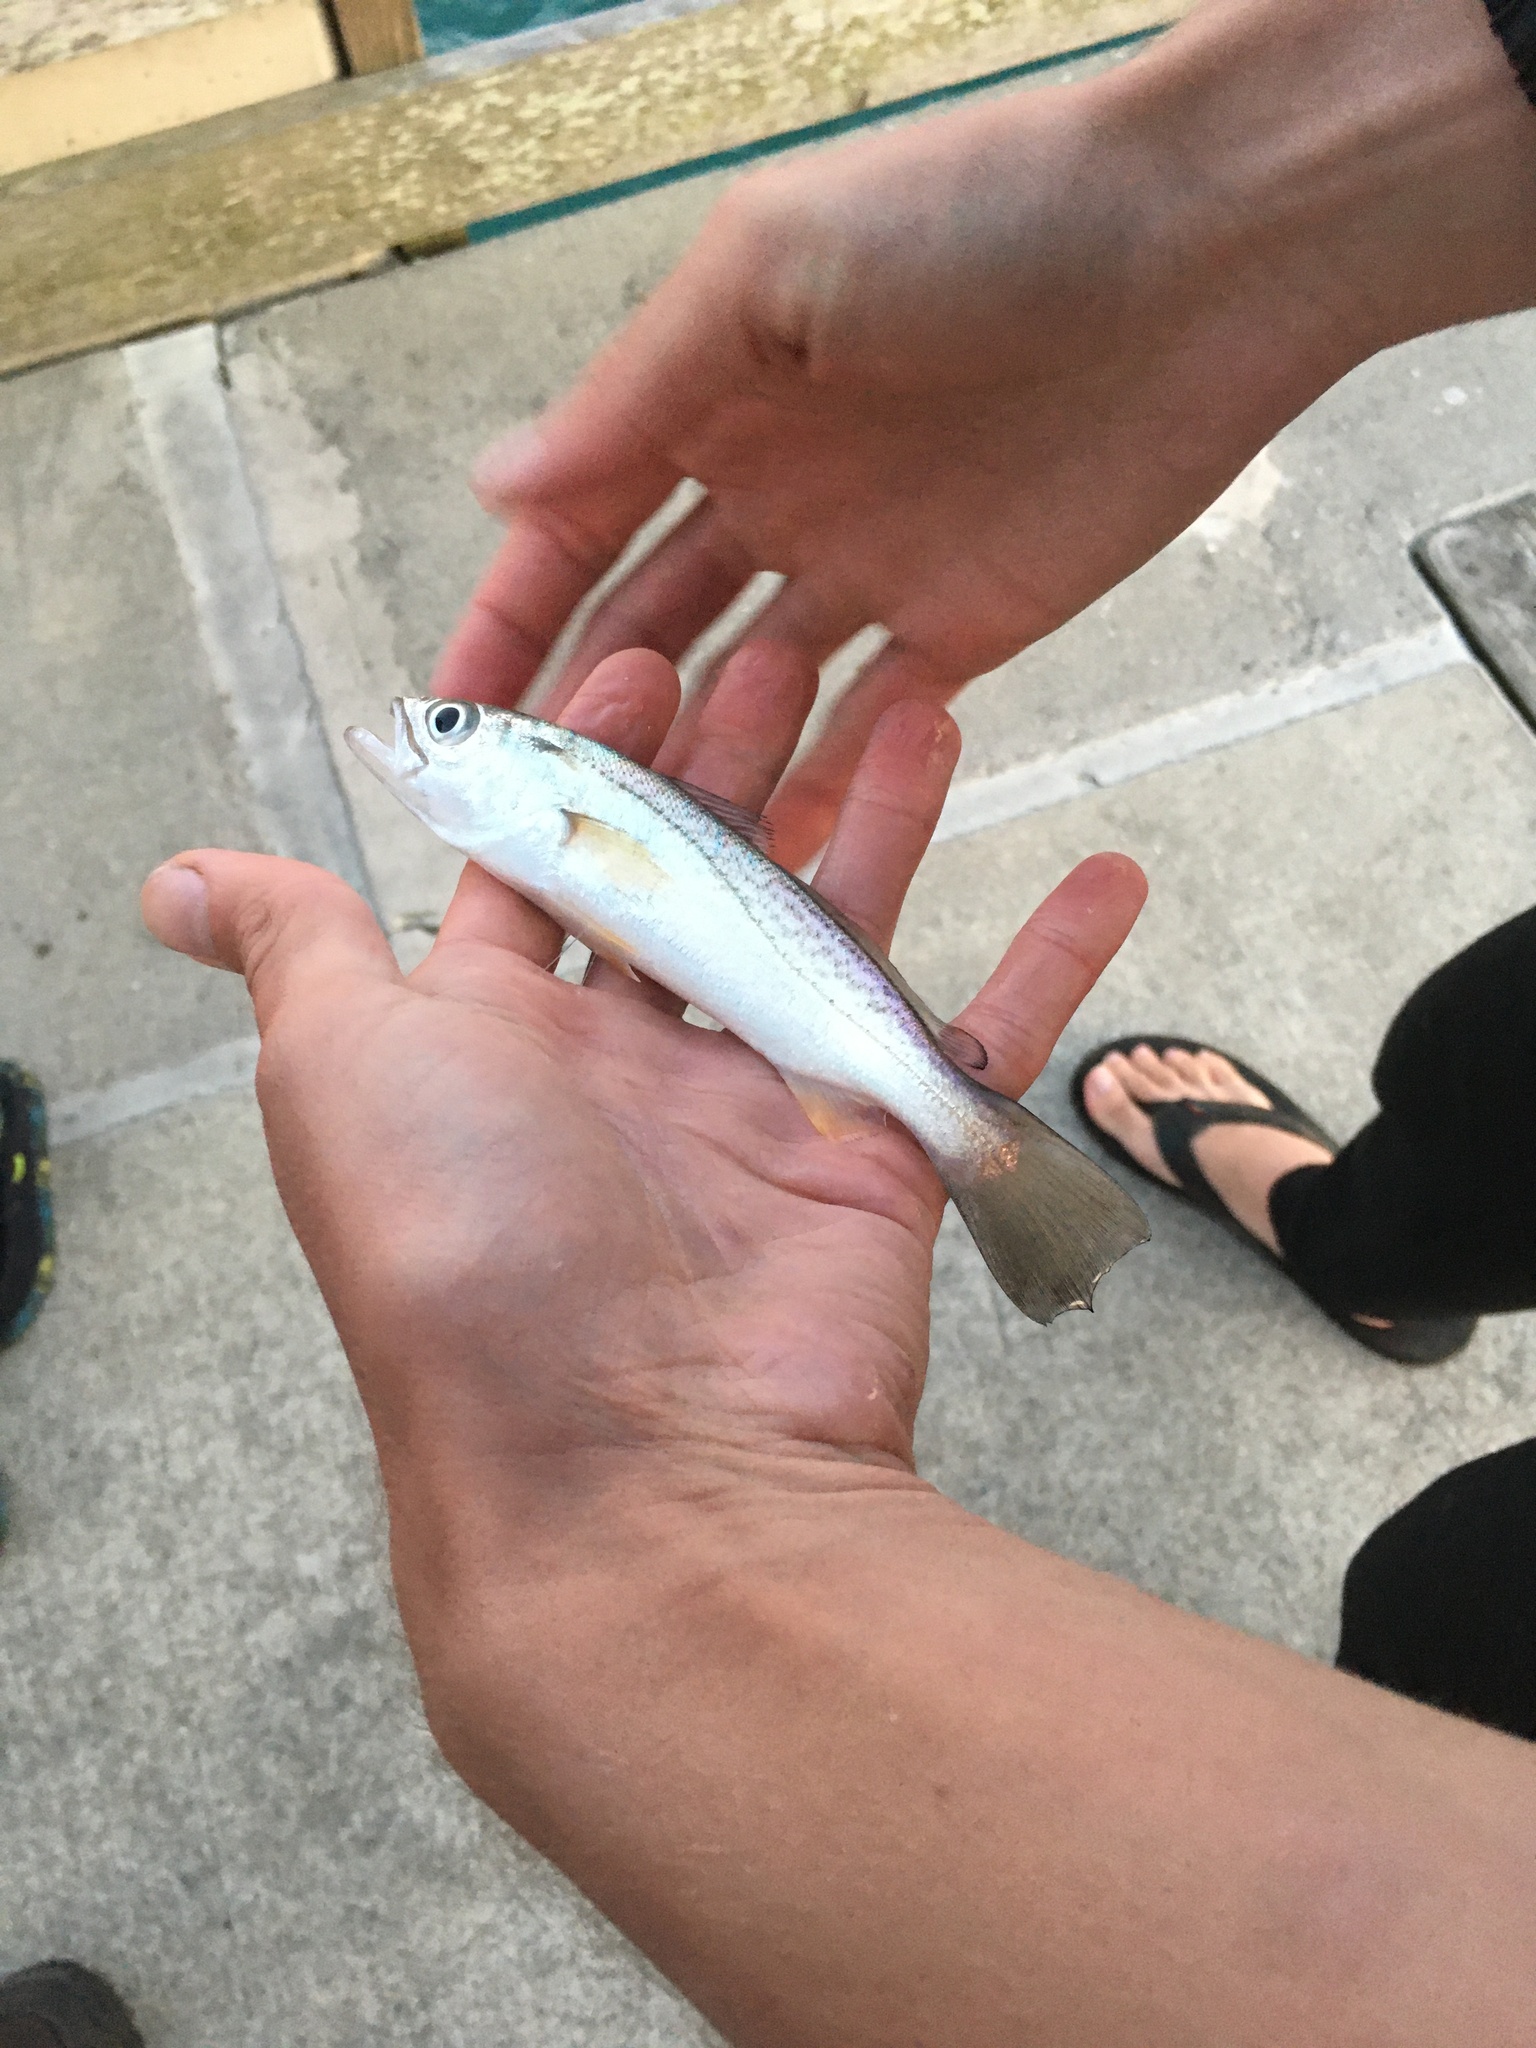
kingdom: Animalia
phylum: Chordata
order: Perciformes
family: Sciaenidae
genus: Cynoscion
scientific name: Cynoscion regalis
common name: Squeteague
